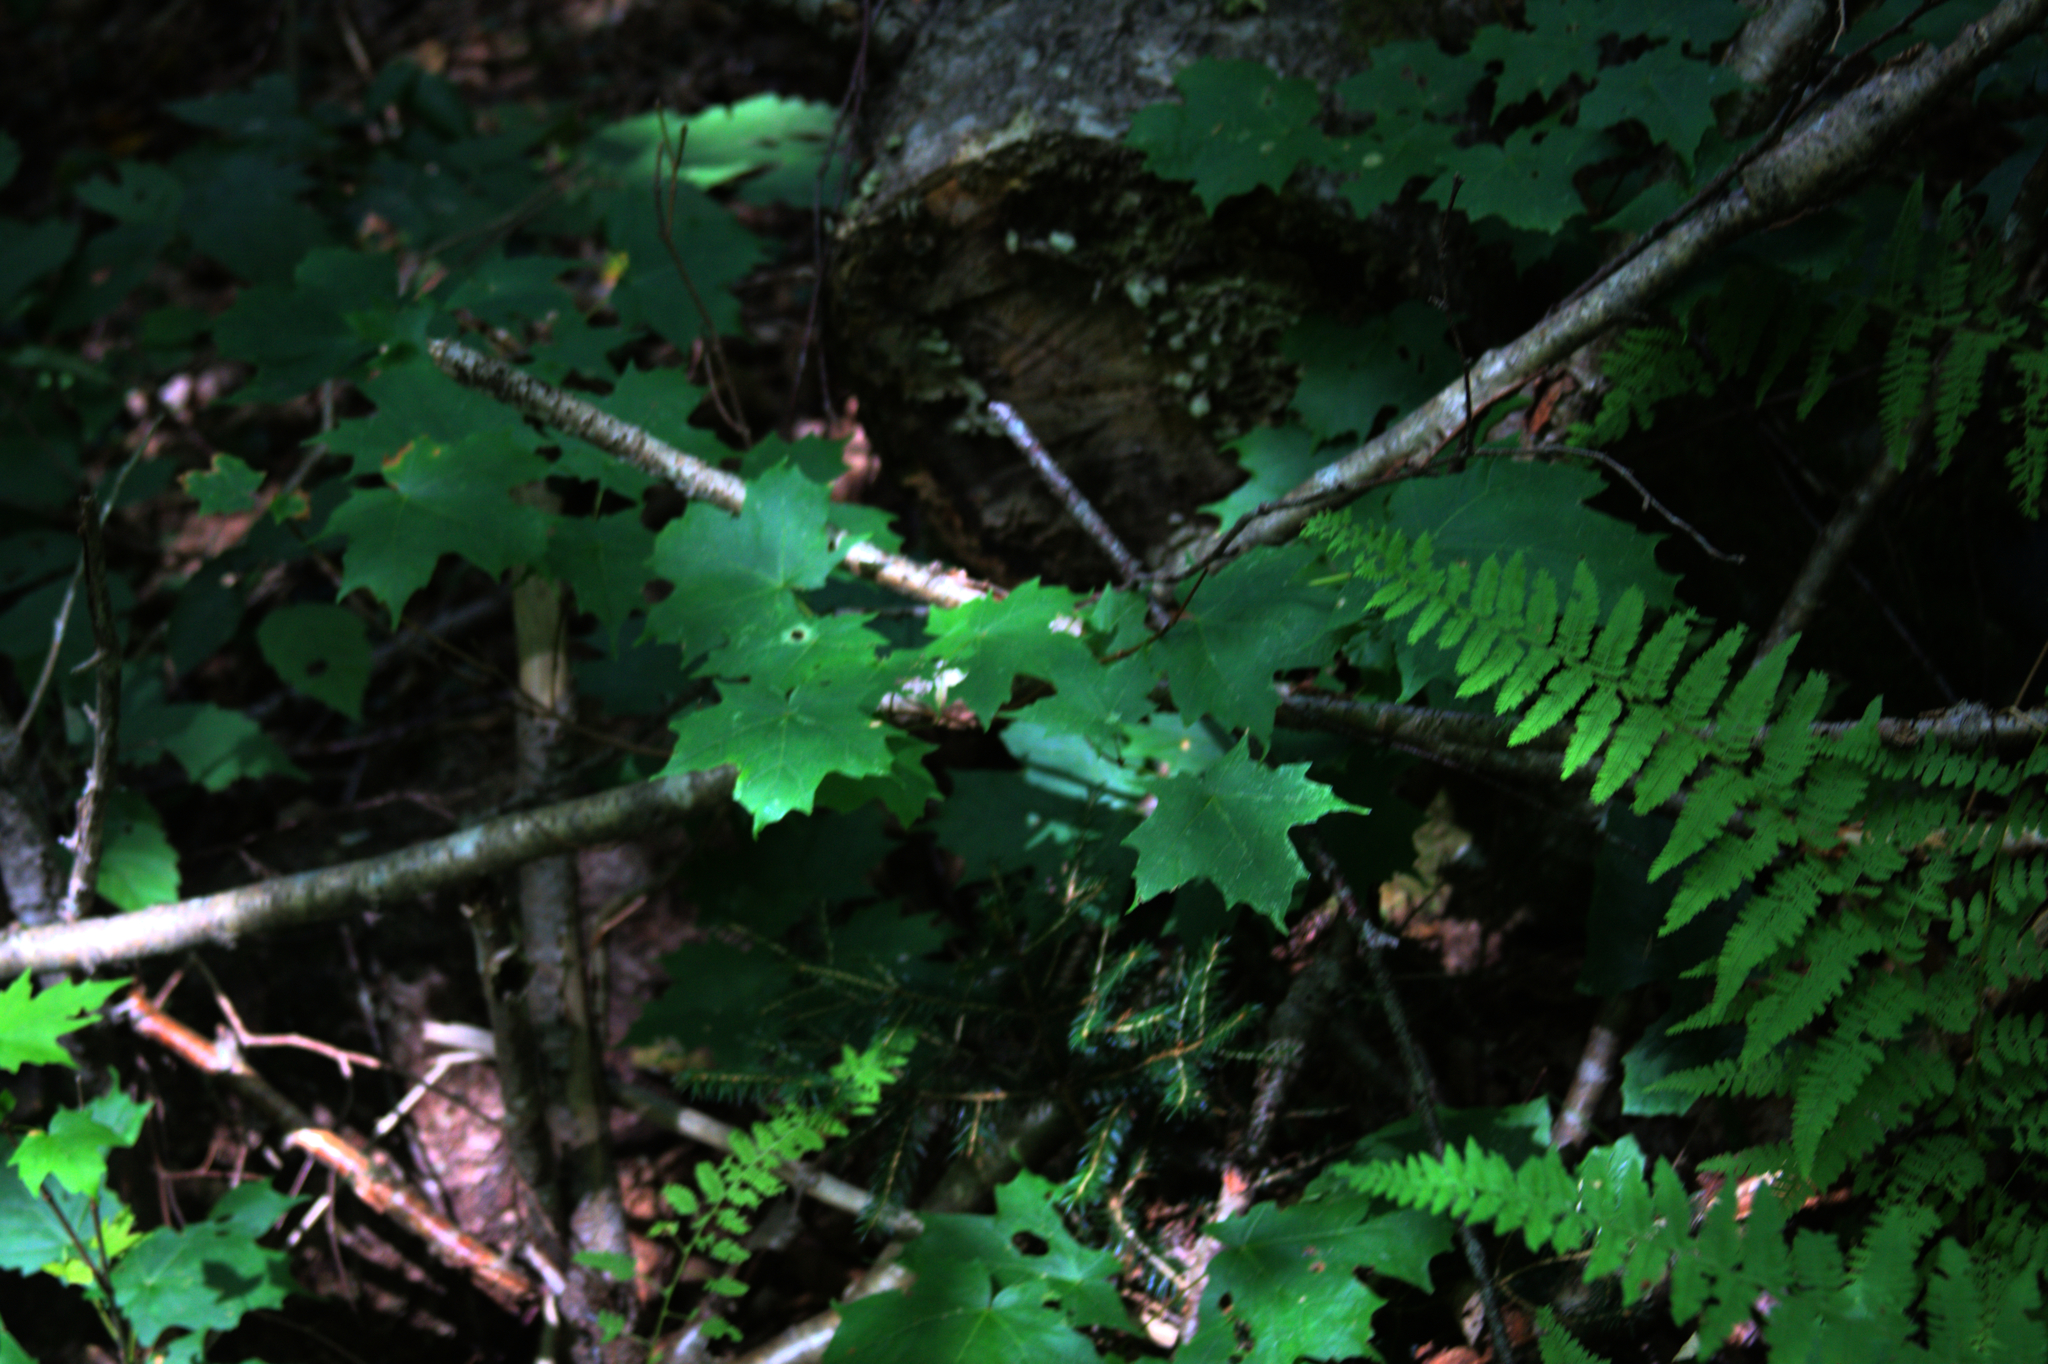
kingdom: Plantae
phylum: Tracheophyta
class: Magnoliopsida
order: Sapindales
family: Sapindaceae
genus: Acer
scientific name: Acer saccharum
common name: Sugar maple
